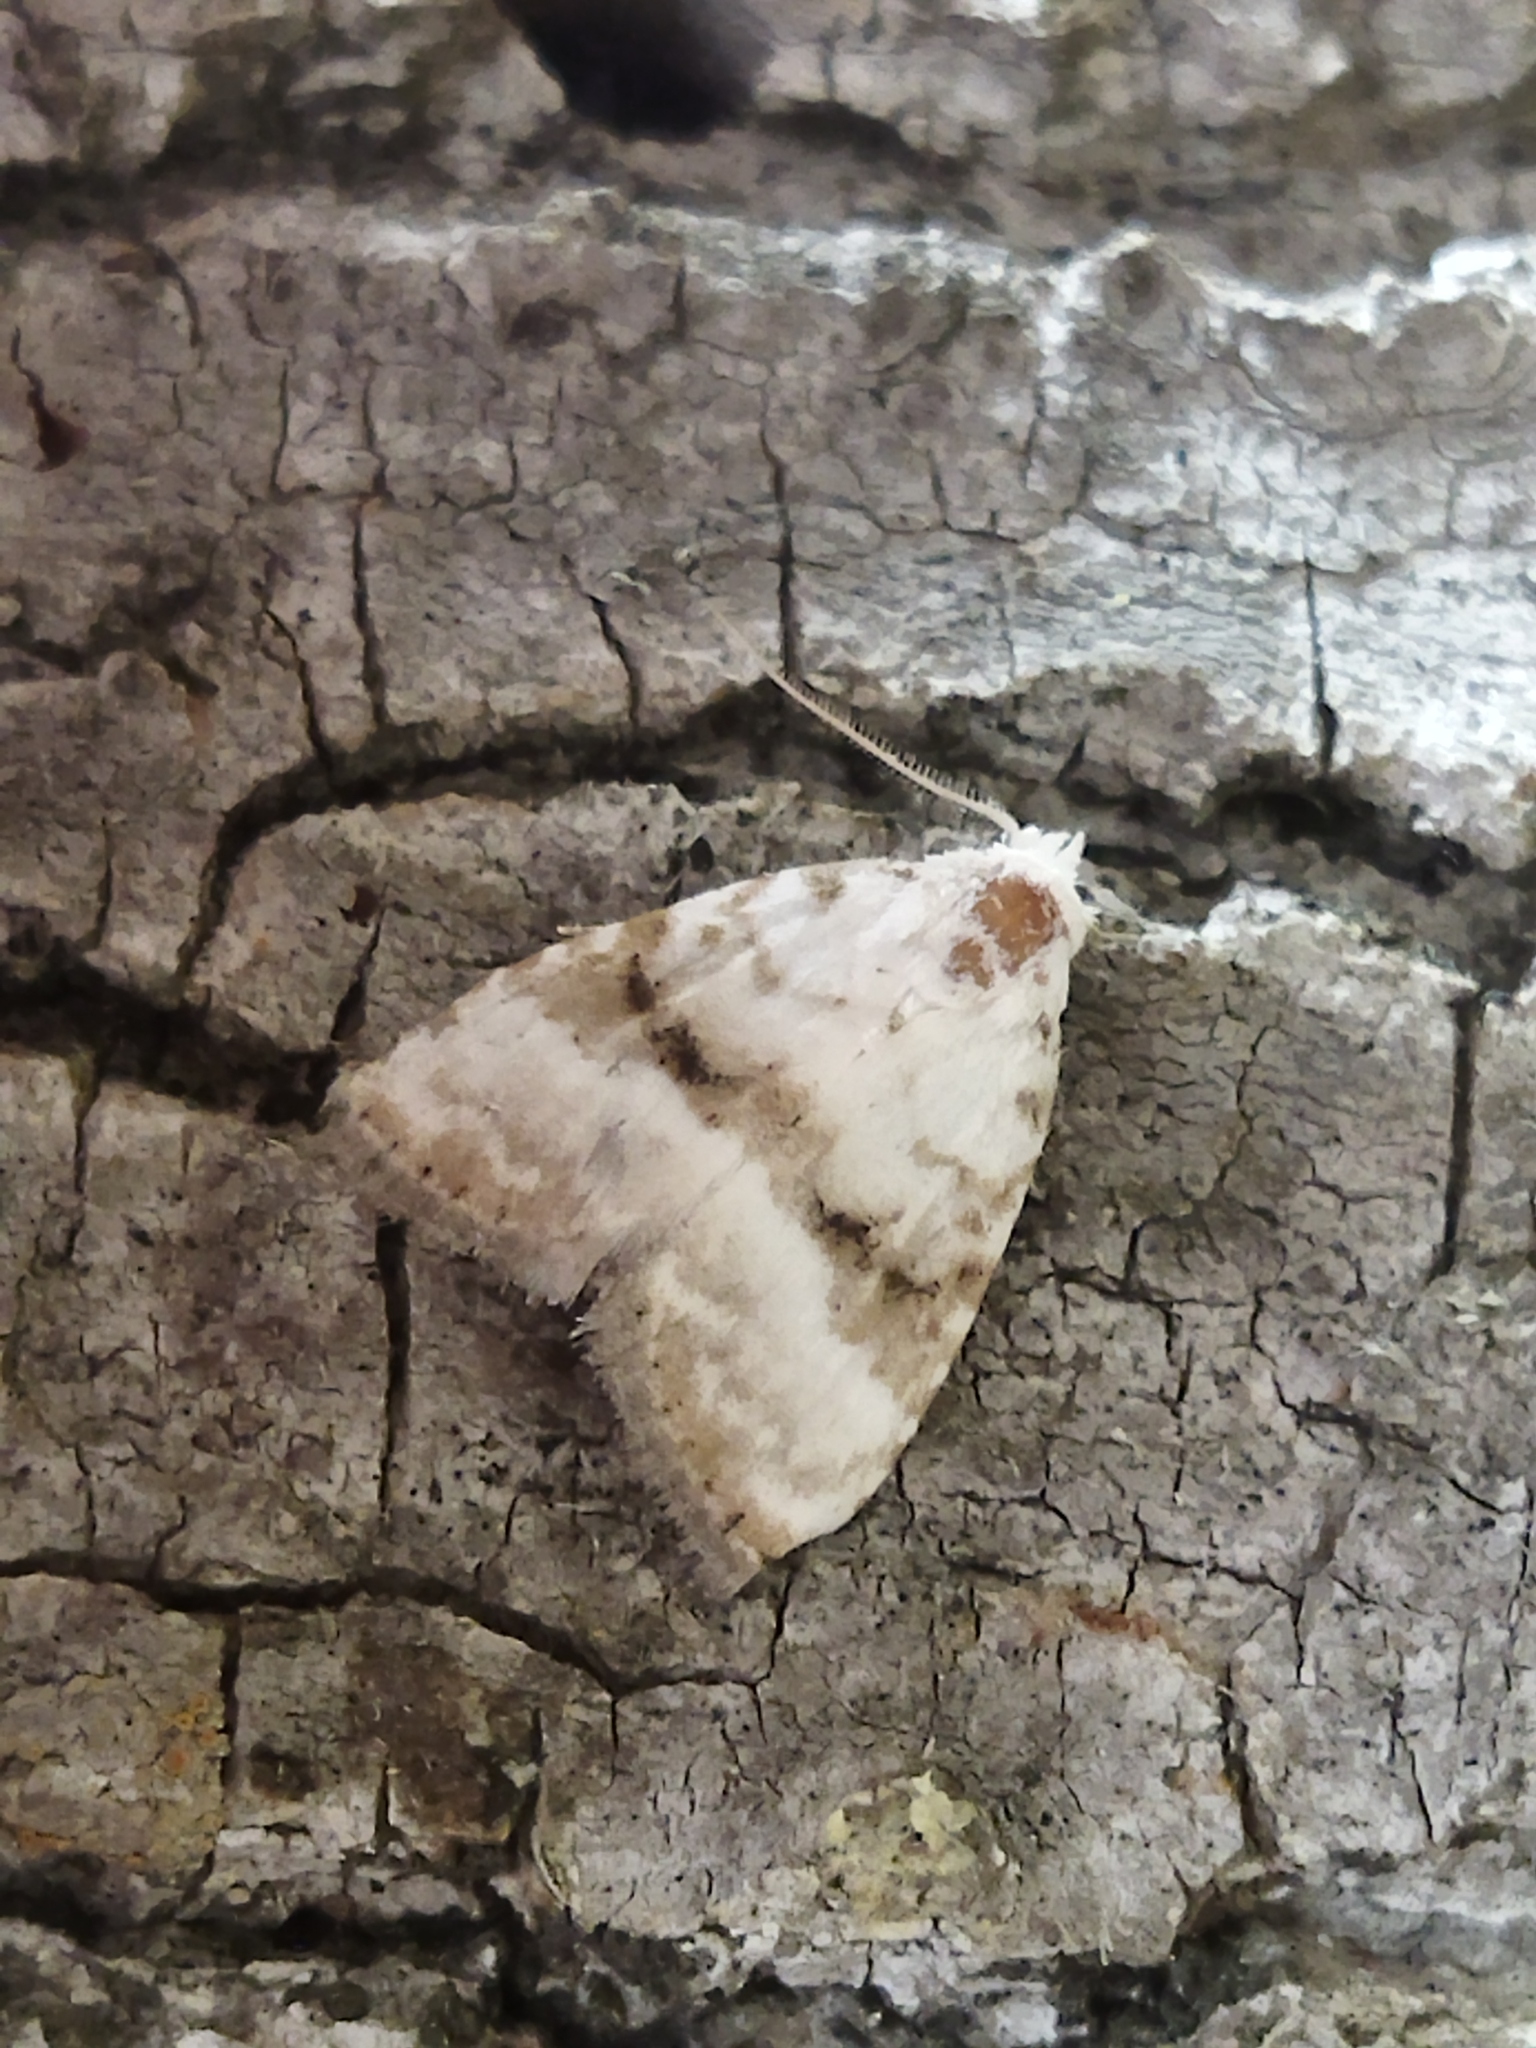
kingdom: Animalia
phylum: Arthropoda
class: Insecta
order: Lepidoptera
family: Nolidae
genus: Meganola
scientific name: Meganola albula
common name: Kent black arches
